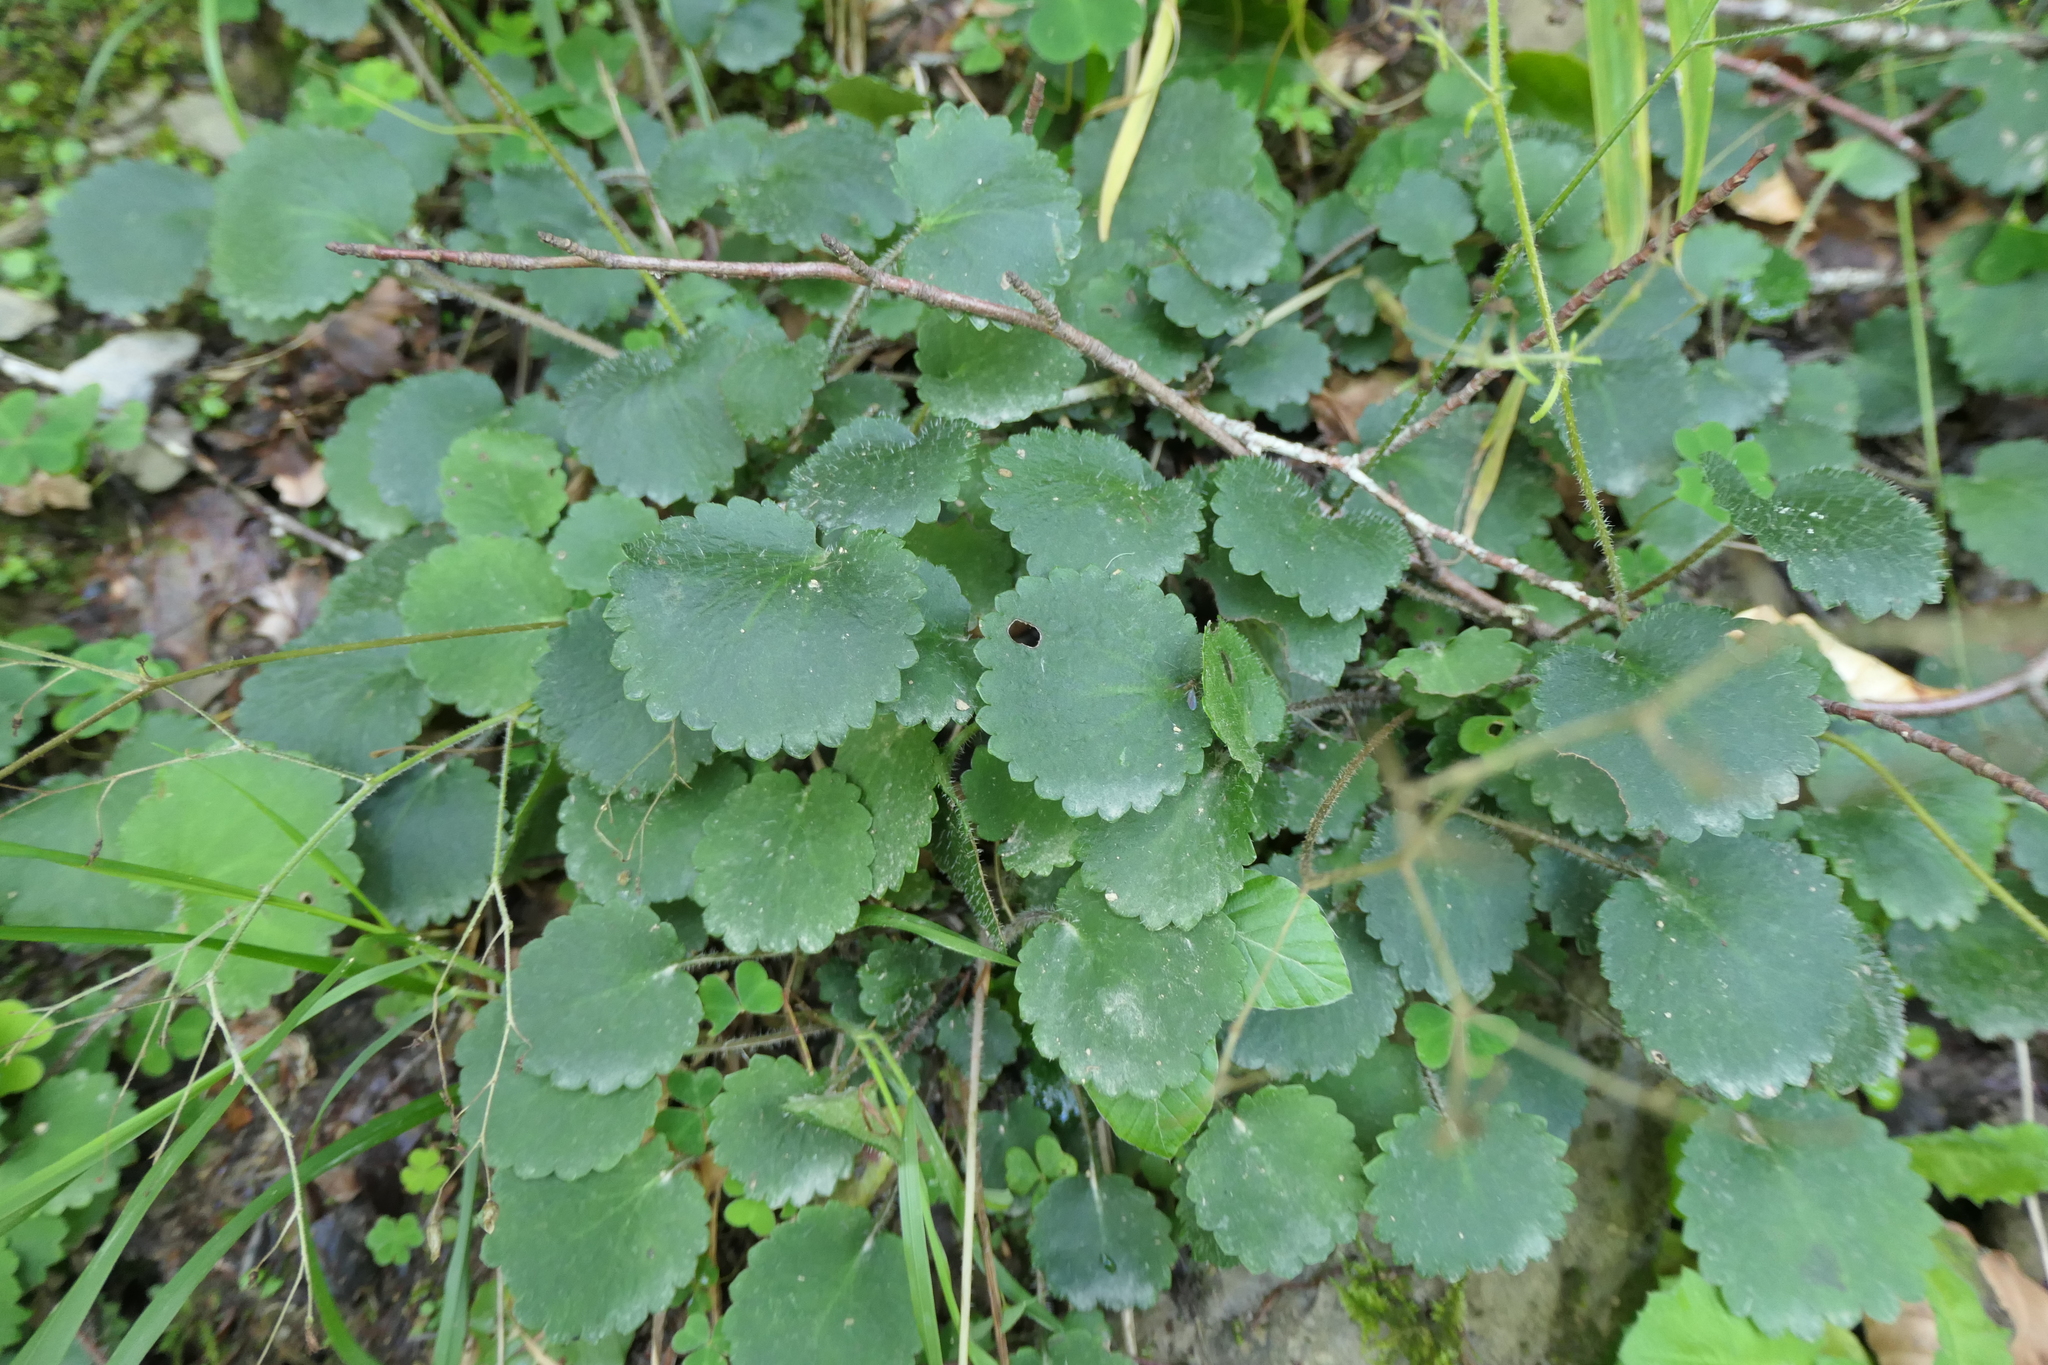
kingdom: Plantae
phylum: Tracheophyta
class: Magnoliopsida
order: Saxifragales
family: Saxifragaceae
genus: Saxifraga
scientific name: Saxifraga hirsuta
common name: Kidney saxifrage
